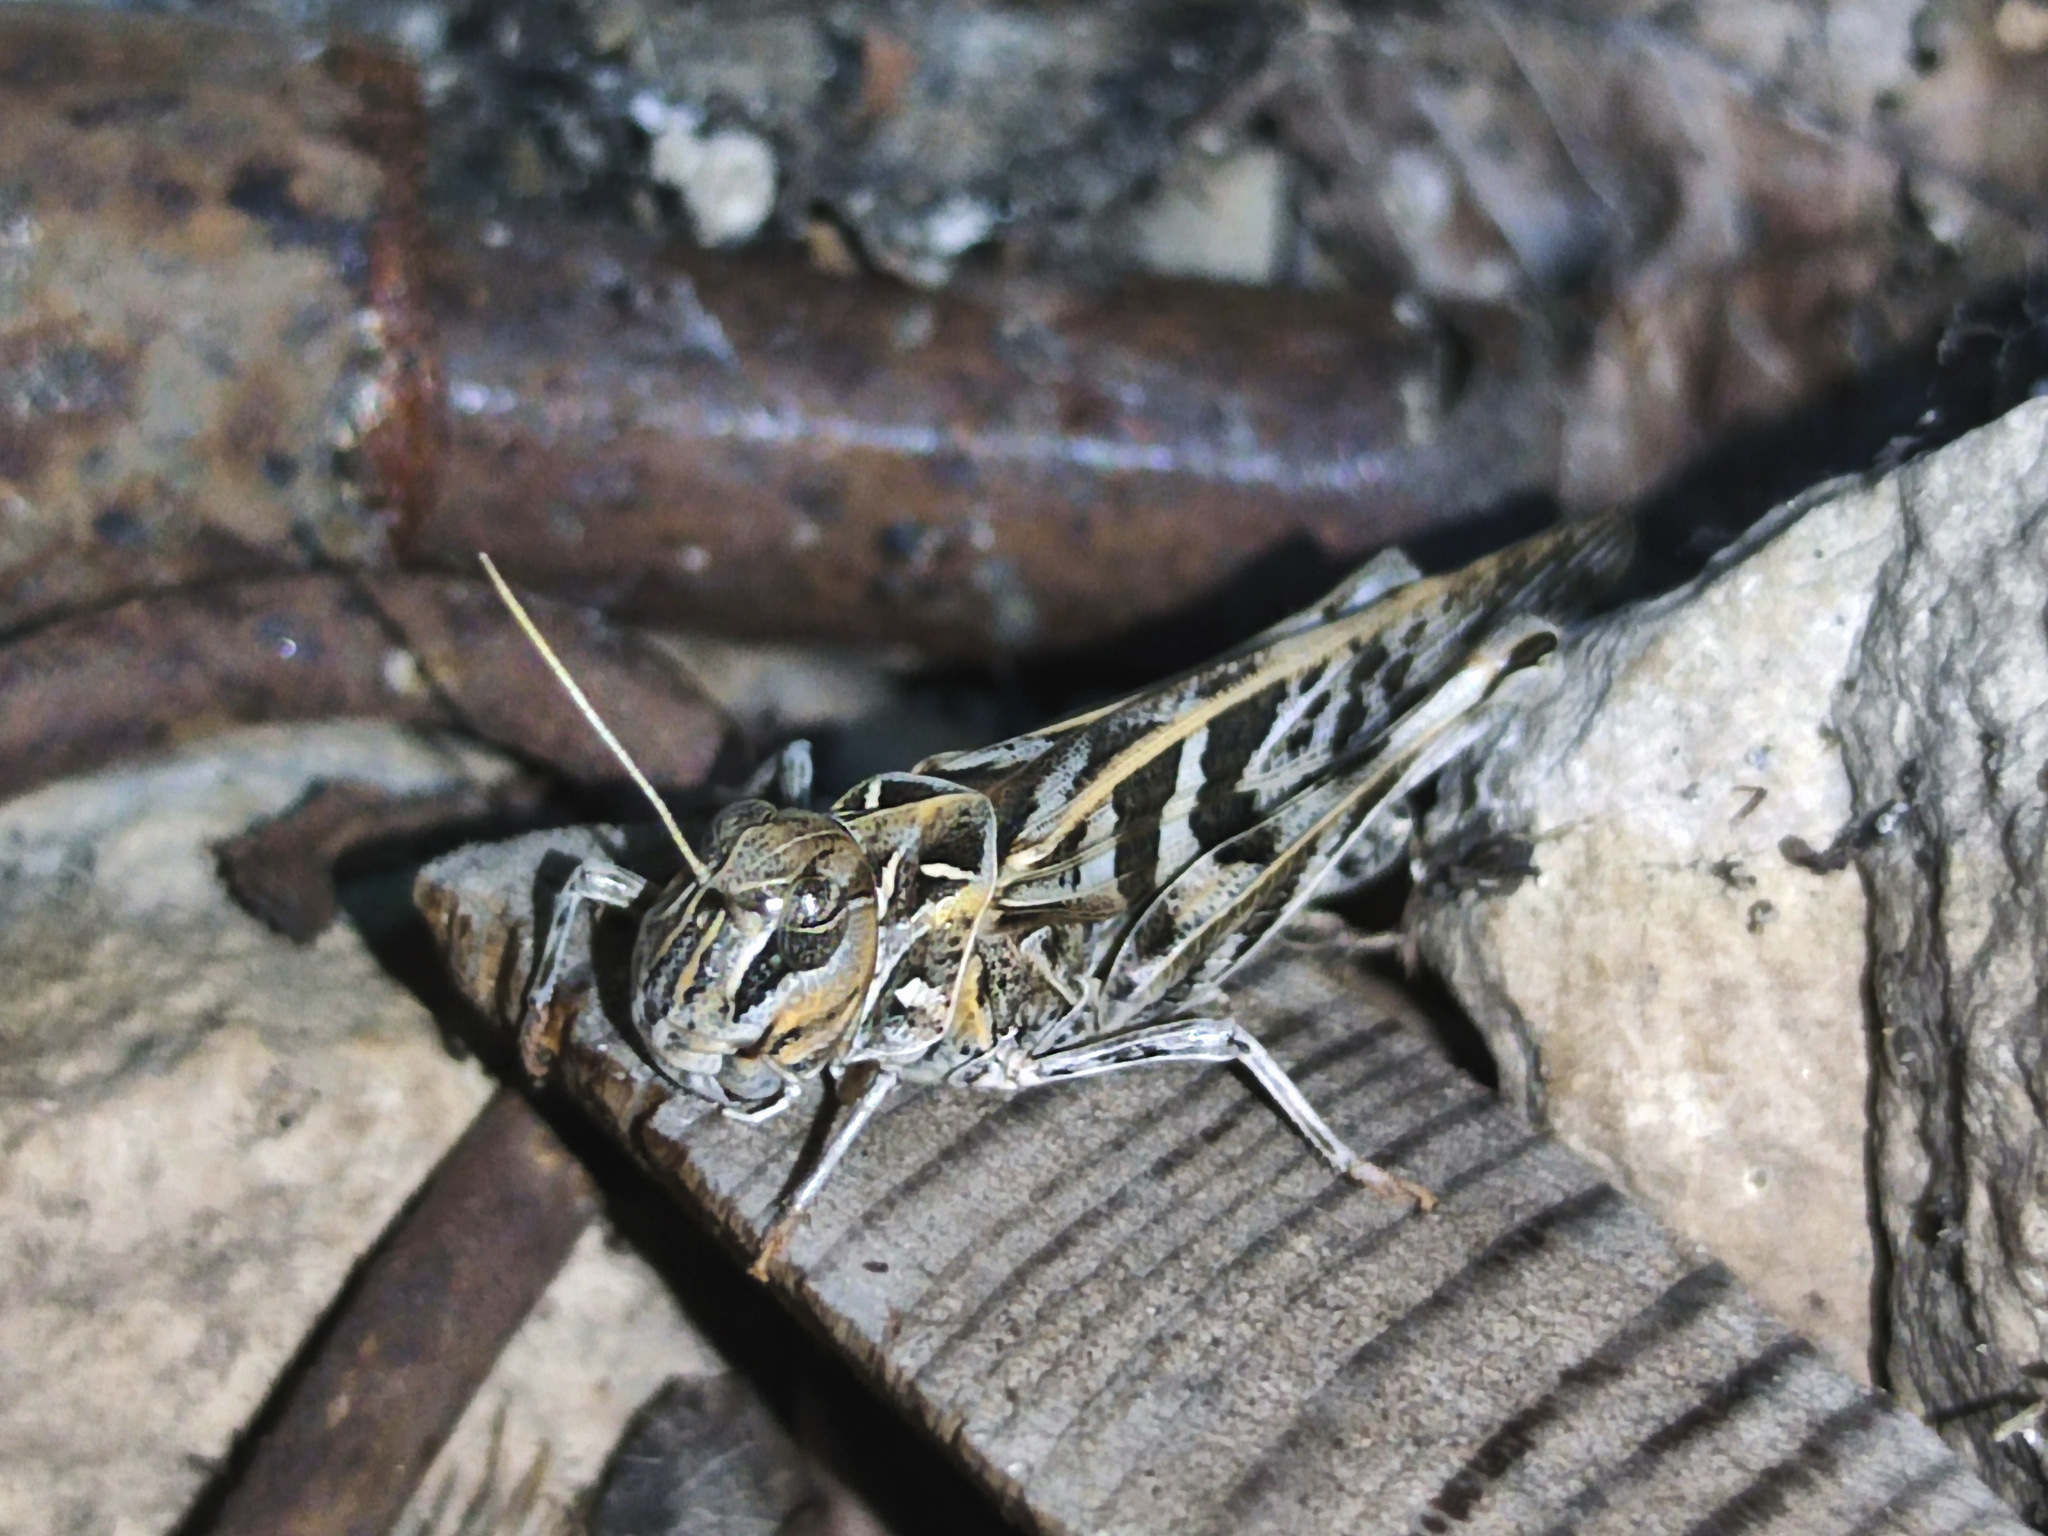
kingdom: Animalia
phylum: Arthropoda
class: Insecta
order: Orthoptera
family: Acrididae
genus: Oedaleus
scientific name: Oedaleus decorus
